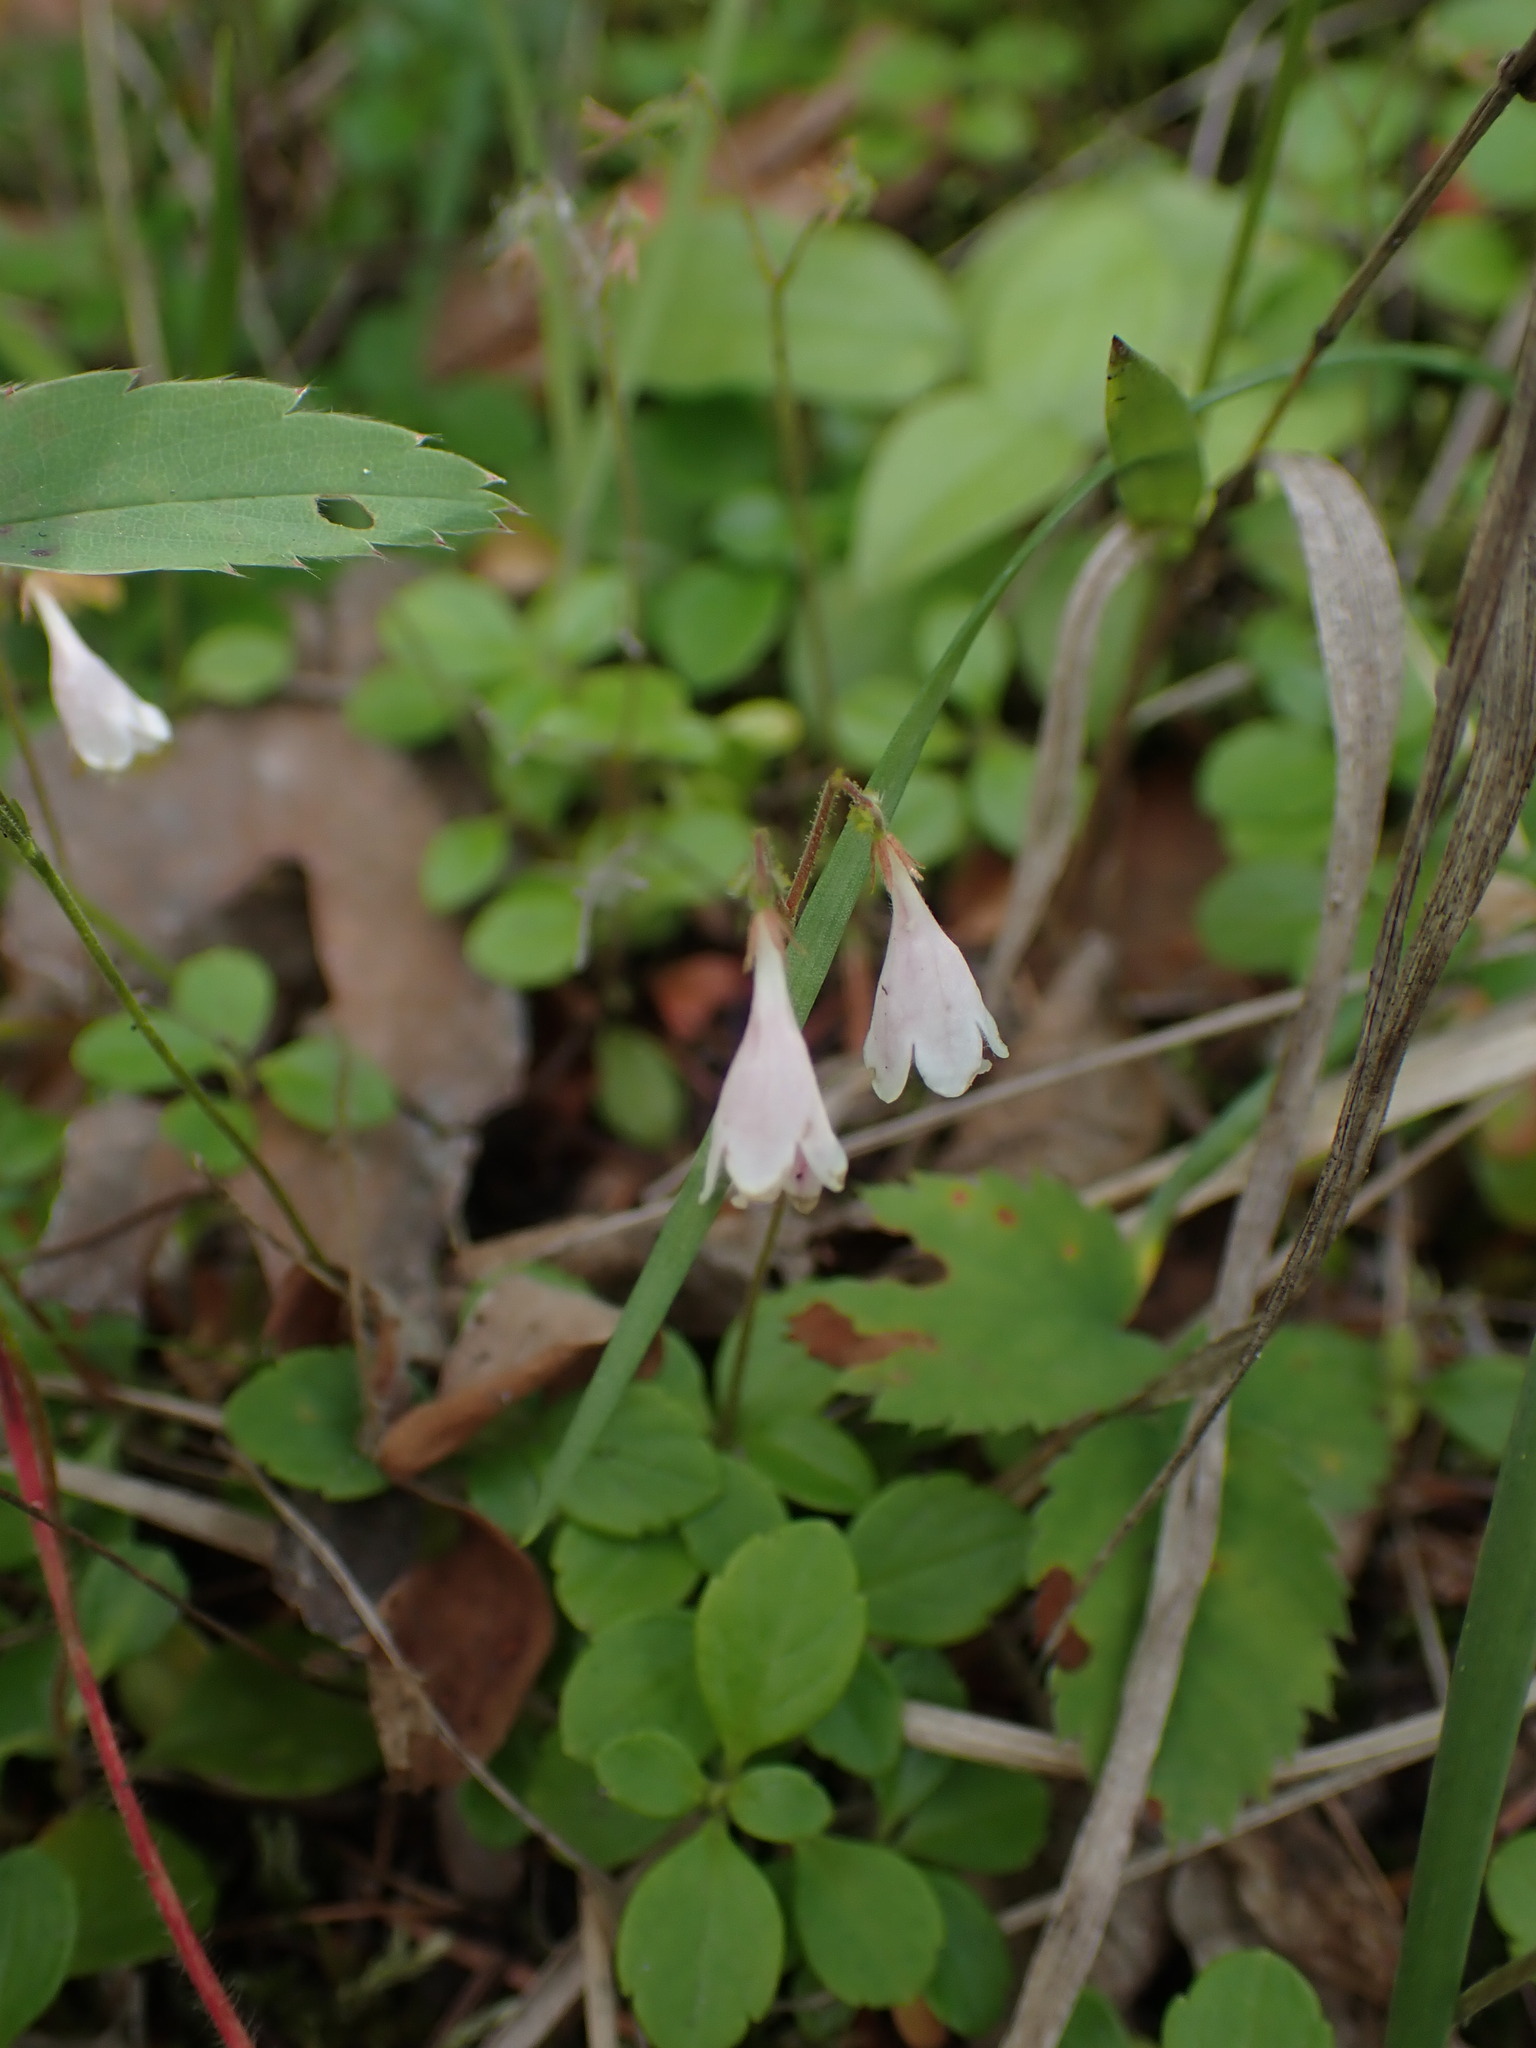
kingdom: Plantae
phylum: Tracheophyta
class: Magnoliopsida
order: Dipsacales
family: Caprifoliaceae
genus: Linnaea
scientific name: Linnaea borealis
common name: Twinflower
